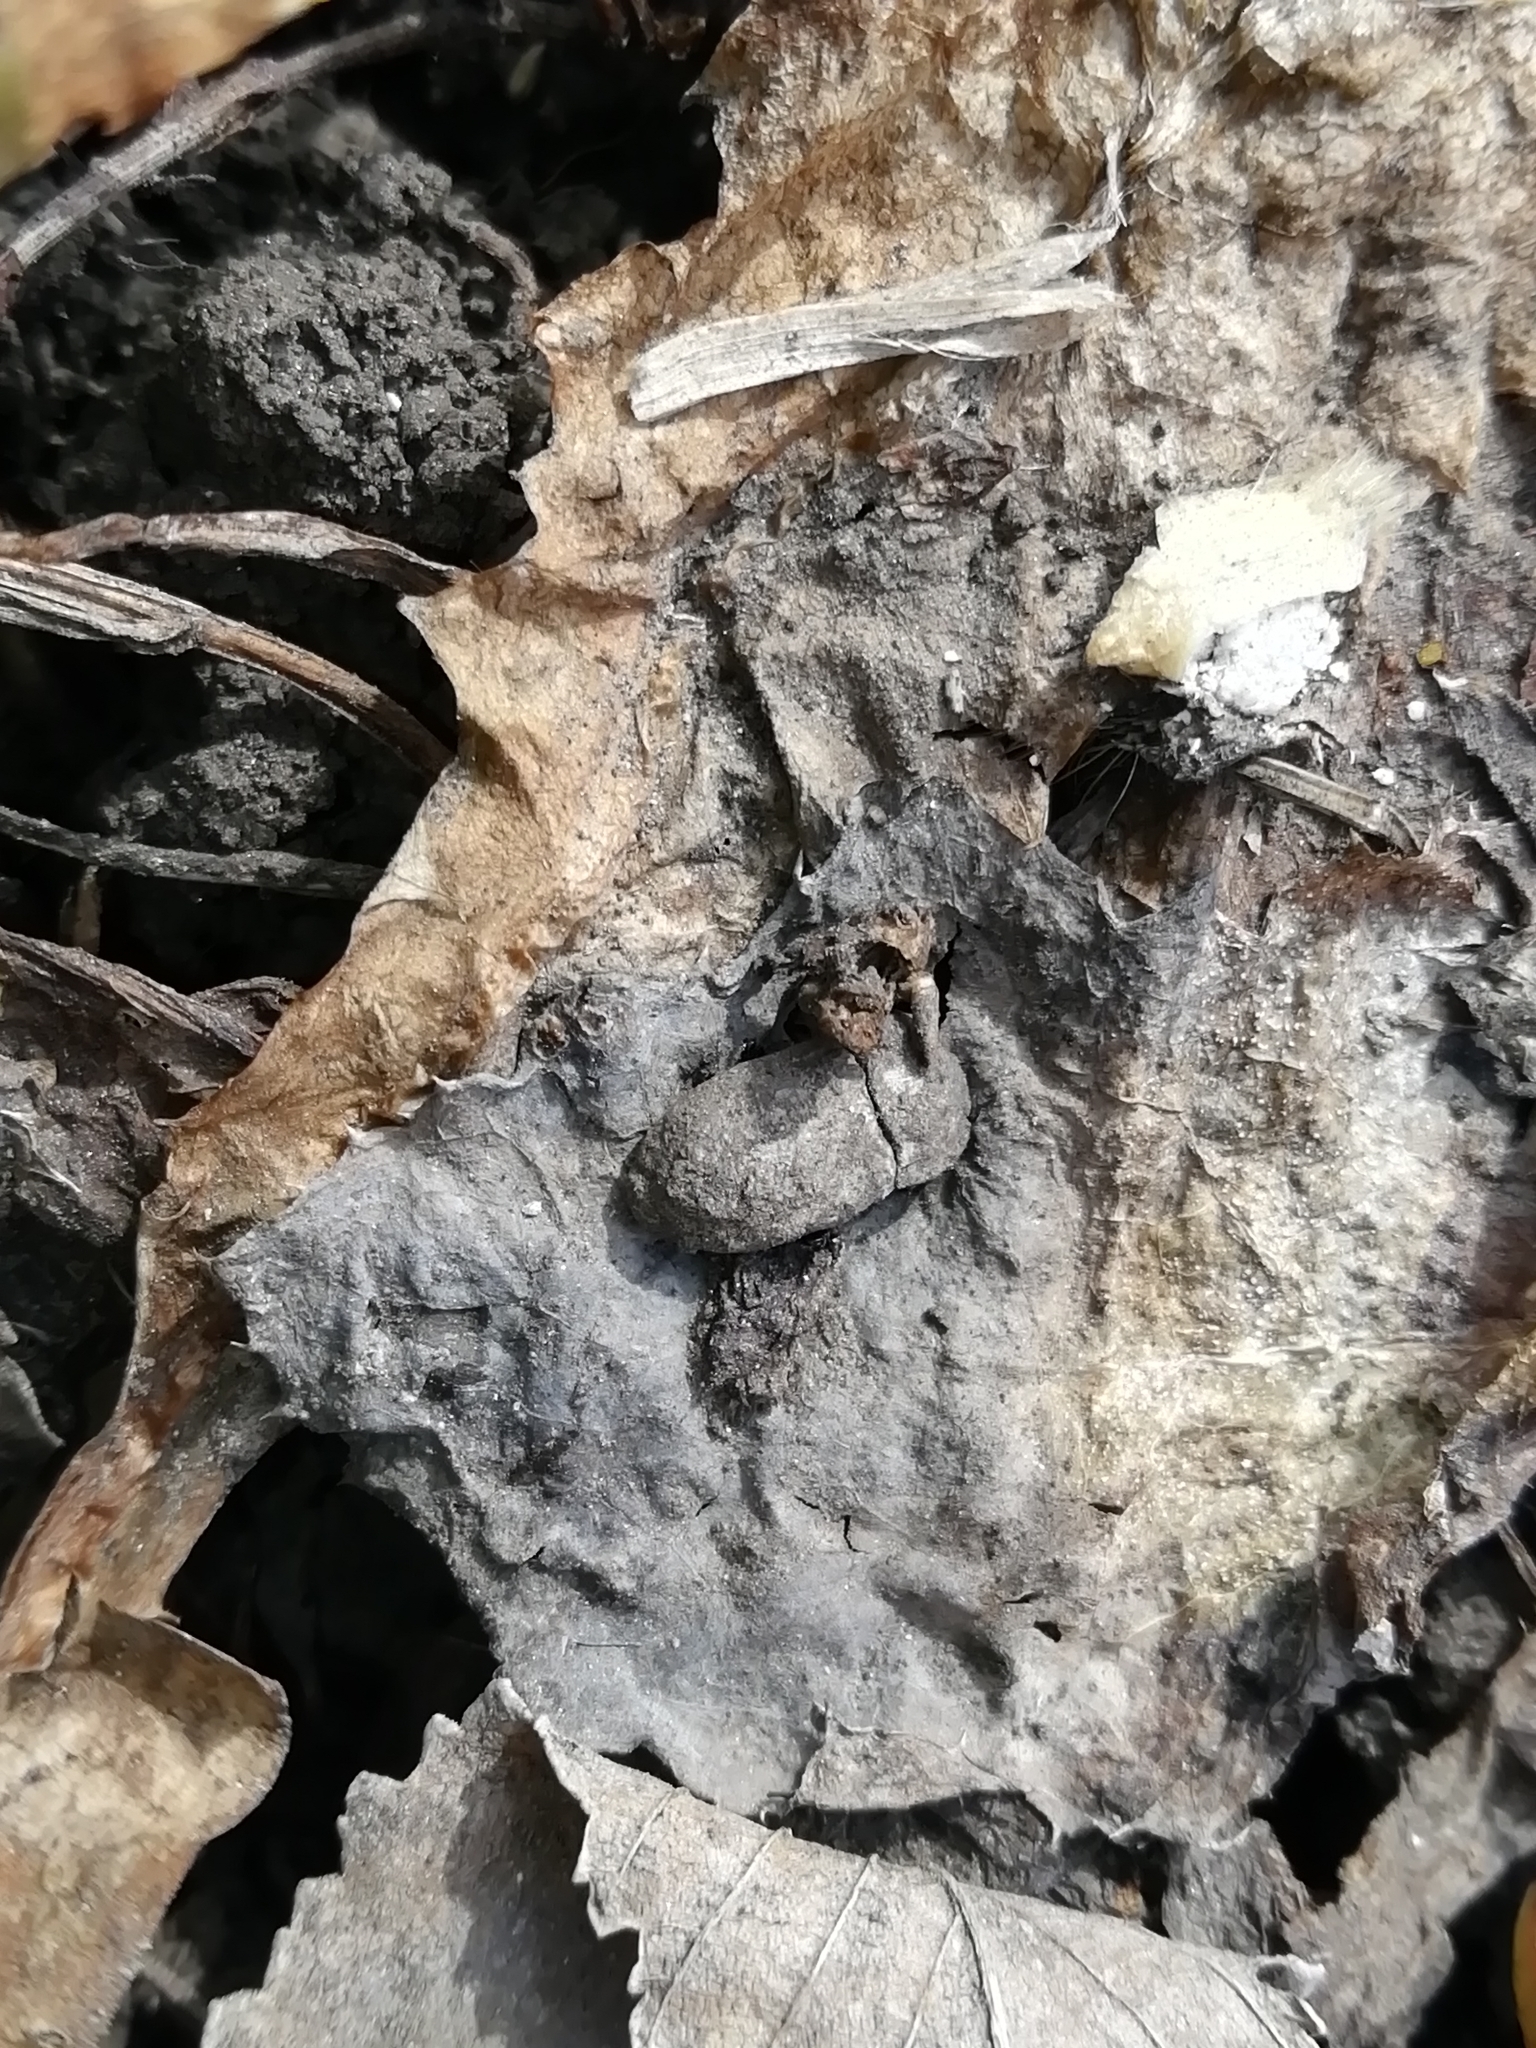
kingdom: Animalia
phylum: Arthropoda
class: Insecta
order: Coleoptera
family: Tenebrionidae
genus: Opatrum
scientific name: Opatrum sabulosum
